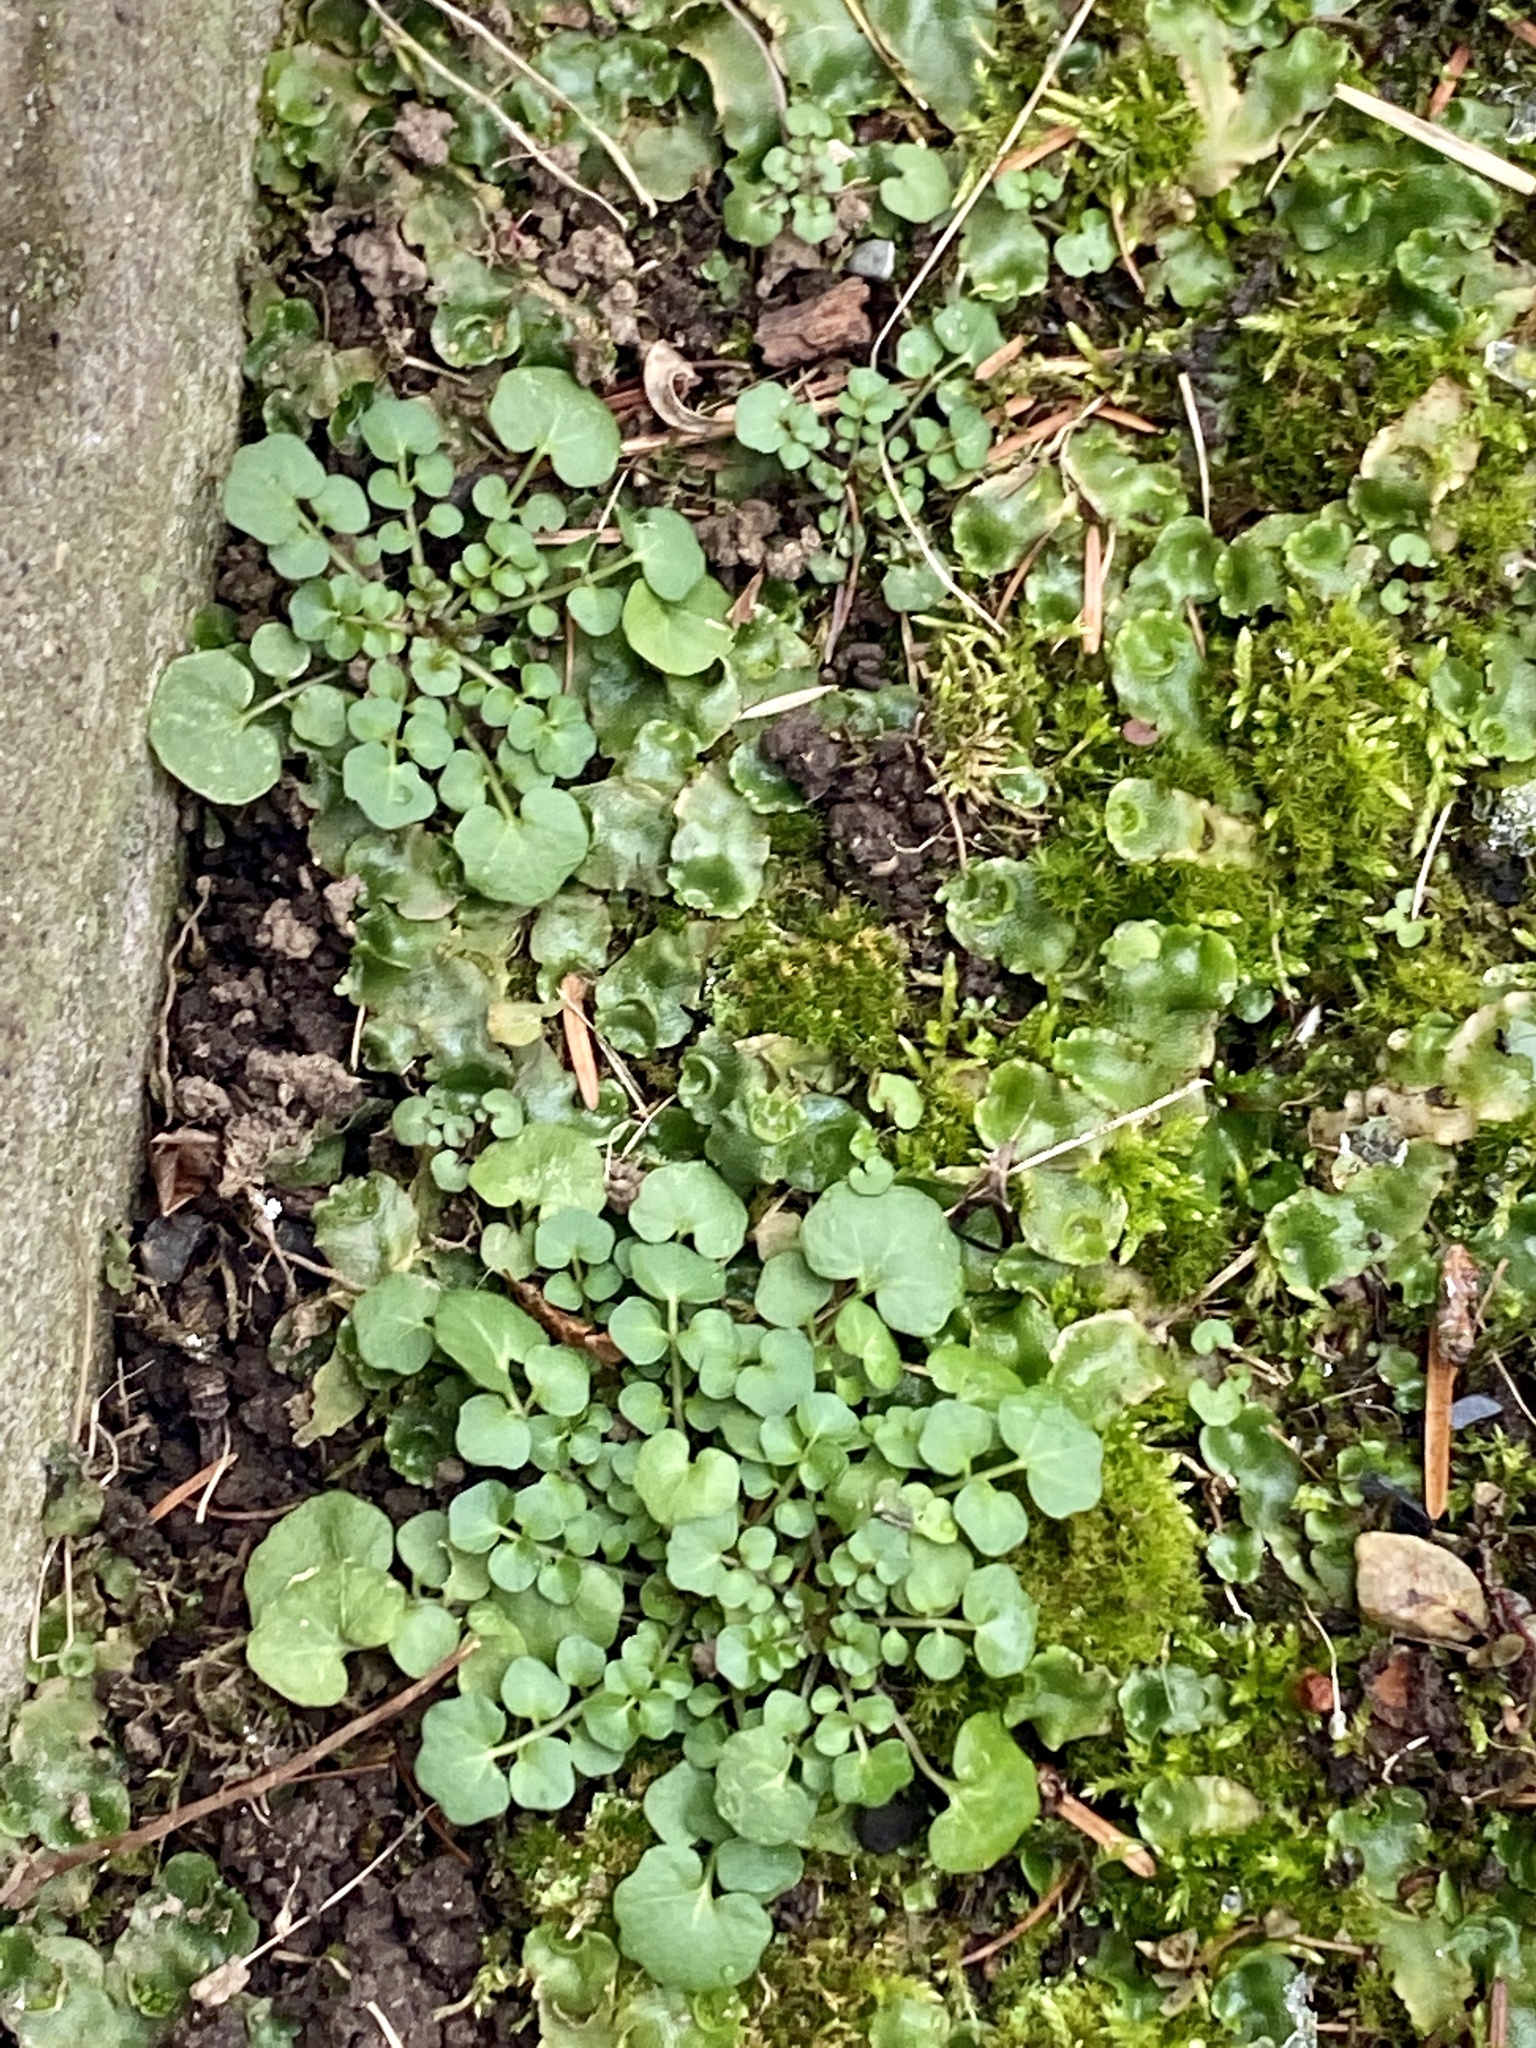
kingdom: Plantae
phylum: Tracheophyta
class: Magnoliopsida
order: Brassicales
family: Brassicaceae
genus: Cardamine
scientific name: Cardamine hirsuta
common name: Hairy bittercress
